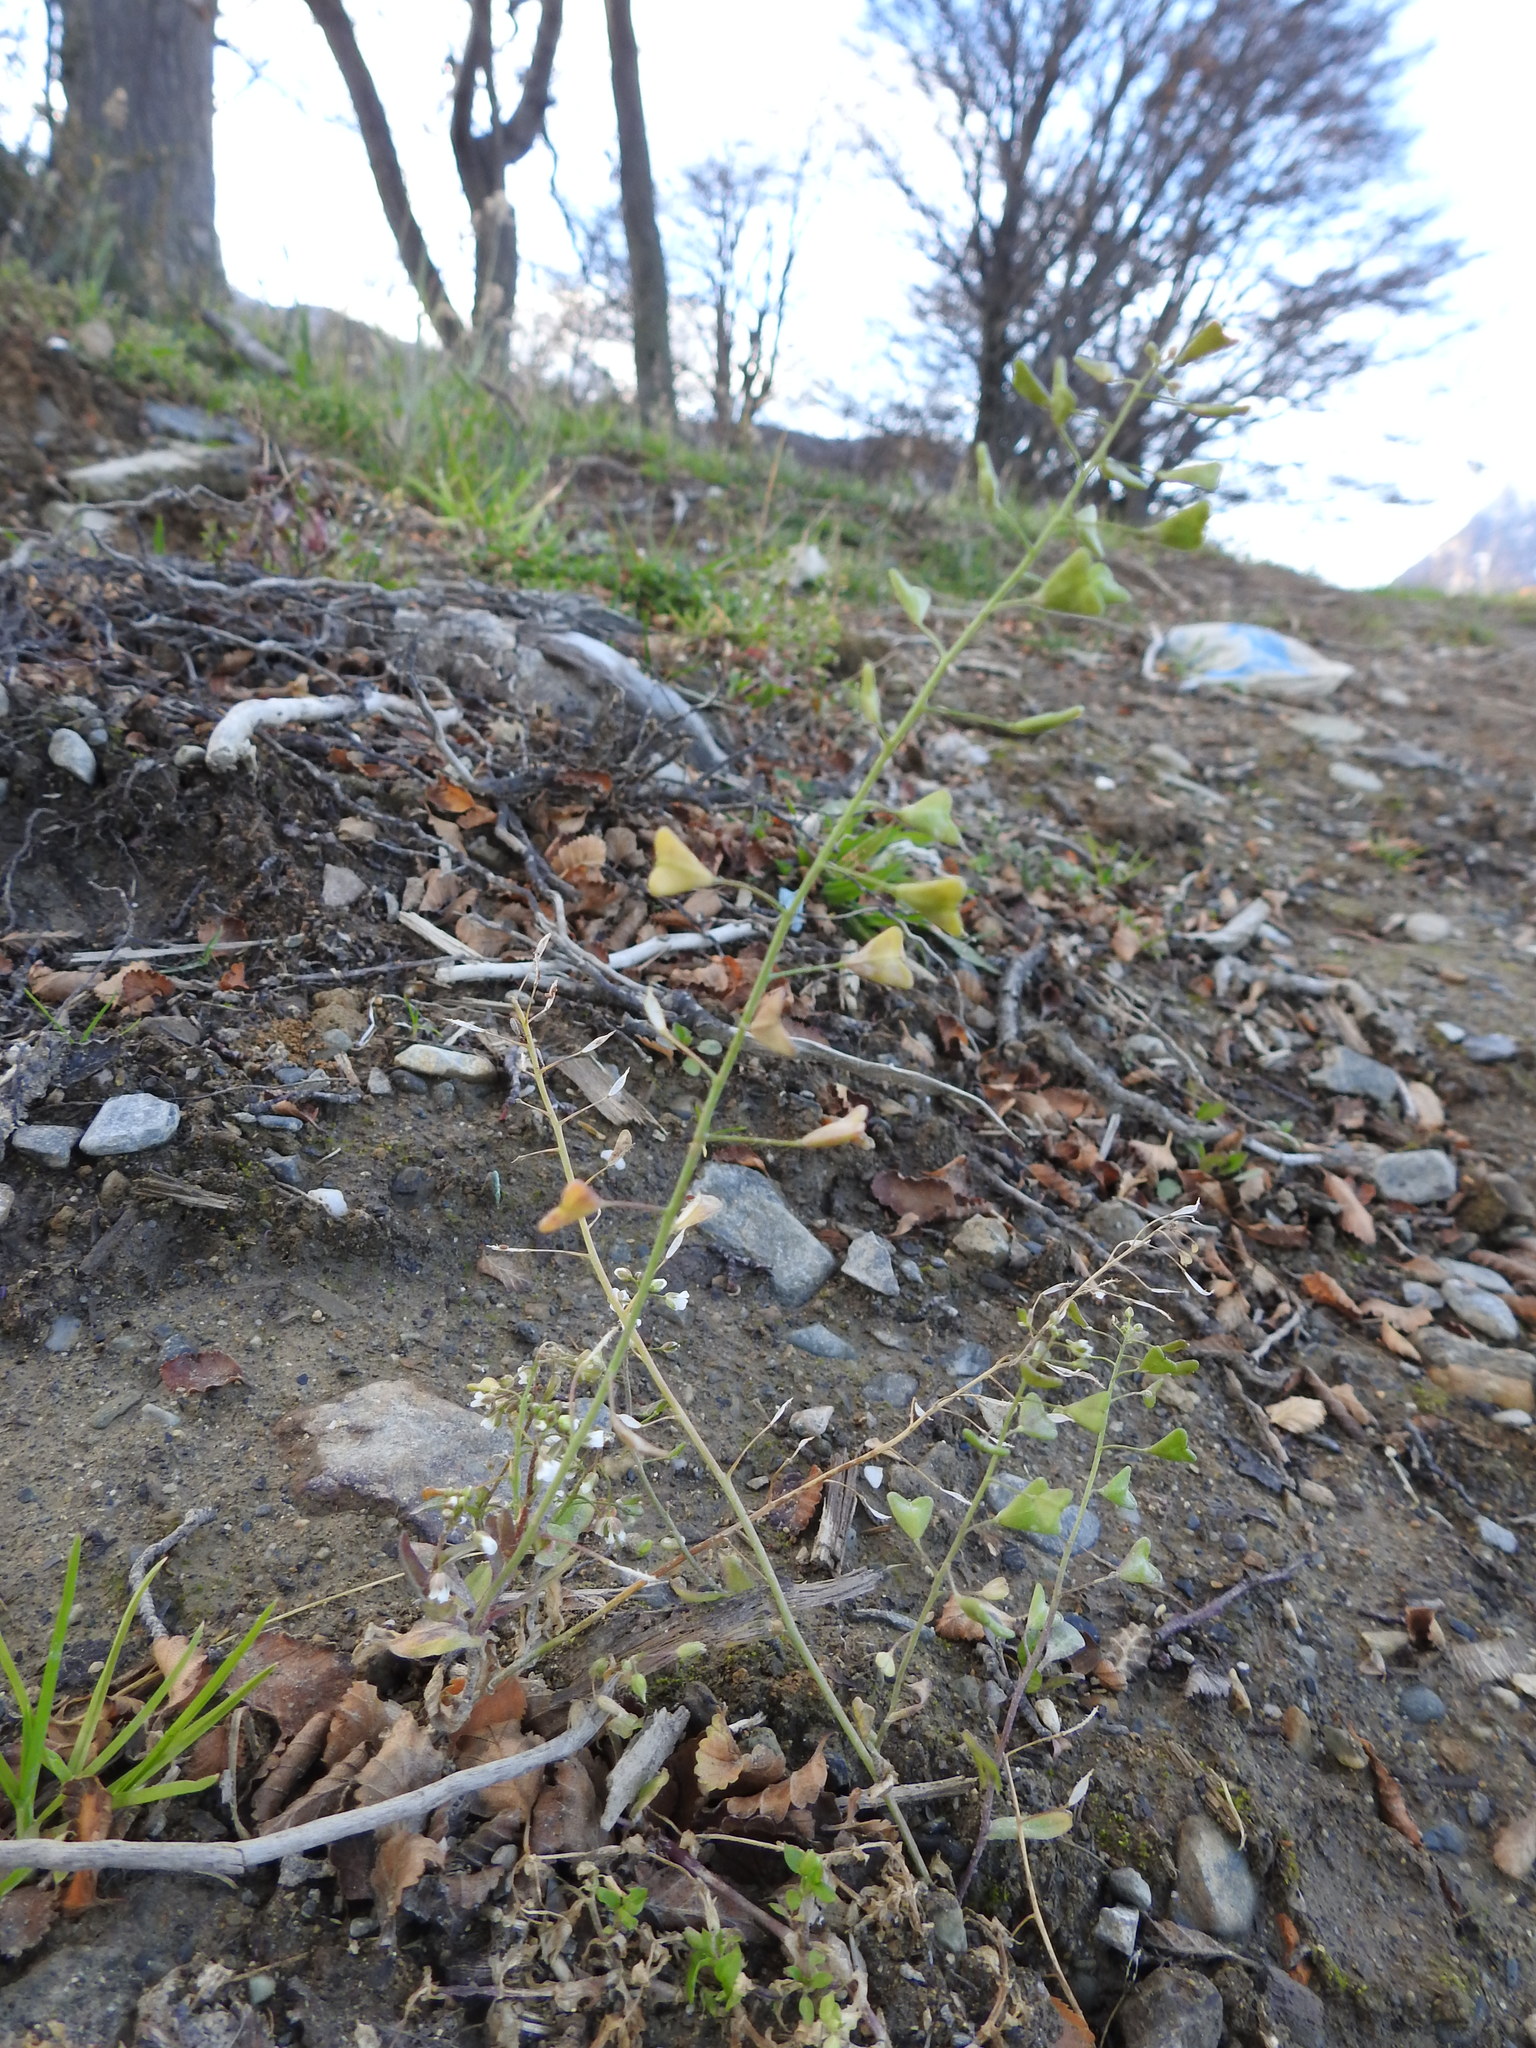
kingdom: Plantae
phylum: Tracheophyta
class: Magnoliopsida
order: Brassicales
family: Brassicaceae
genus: Capsella
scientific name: Capsella bursa-pastoris
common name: Shepherd's purse
